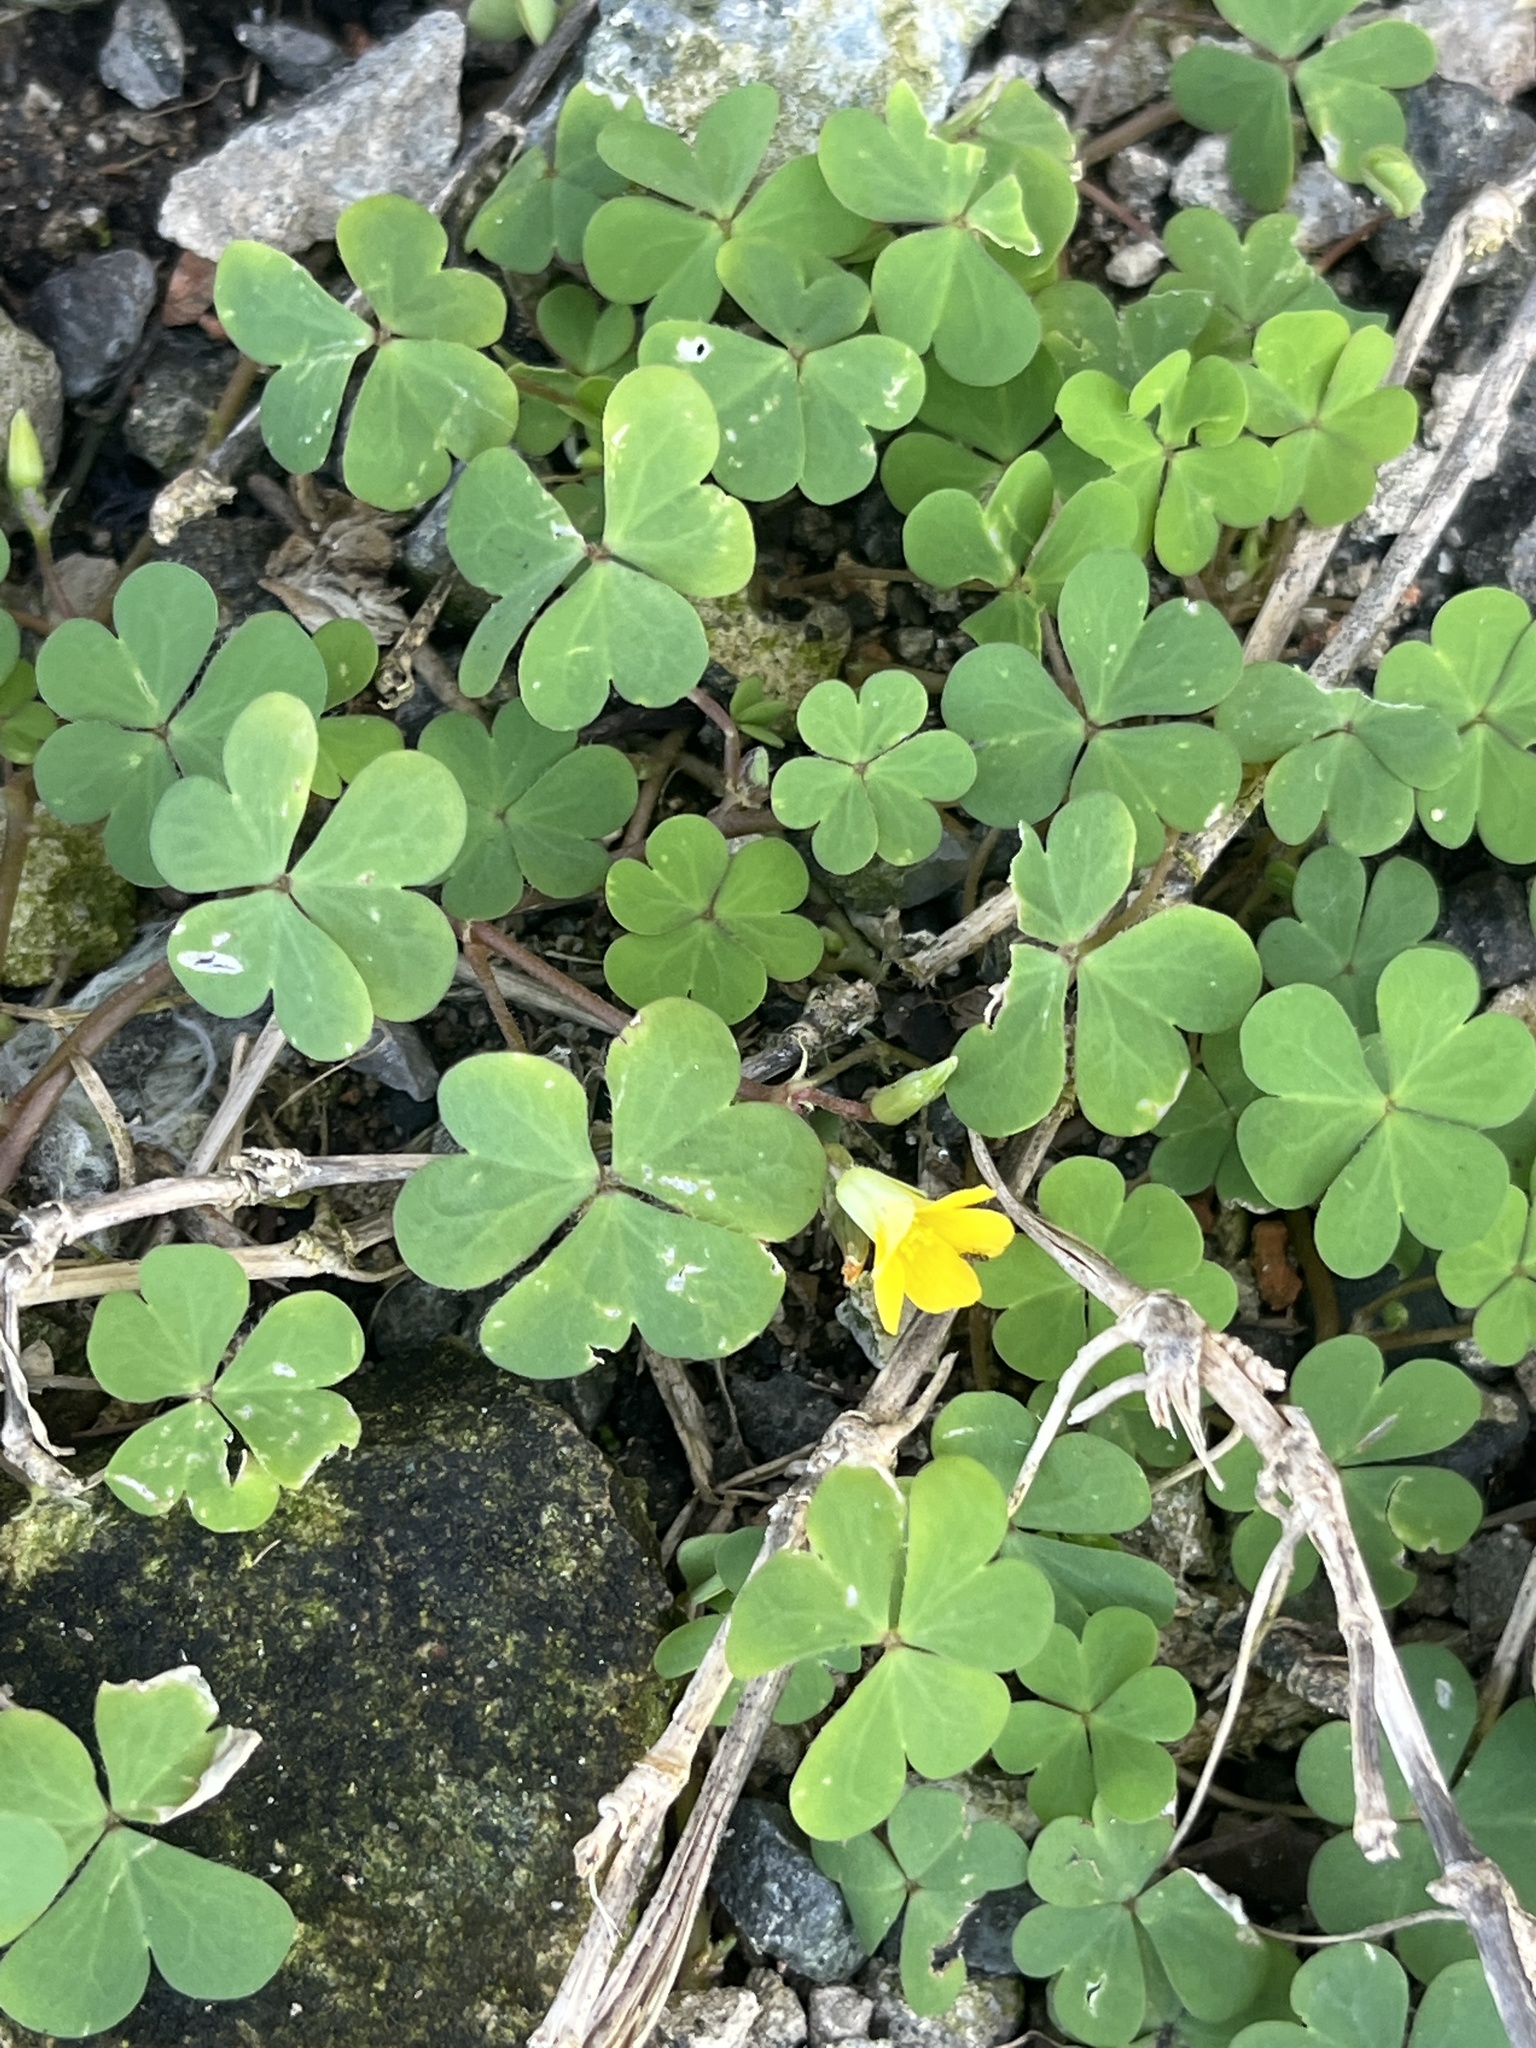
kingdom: Plantae
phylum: Tracheophyta
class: Magnoliopsida
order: Oxalidales
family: Oxalidaceae
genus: Oxalis
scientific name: Oxalis corniculata
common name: Procumbent yellow-sorrel
